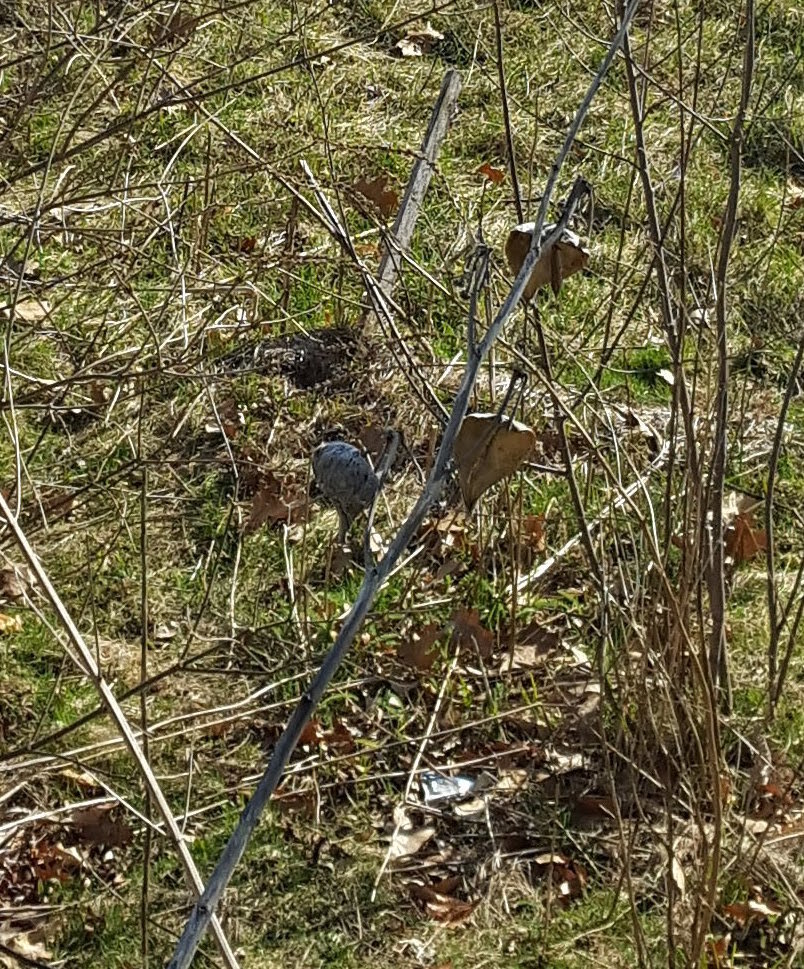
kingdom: Plantae
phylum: Tracheophyta
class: Magnoliopsida
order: Gentianales
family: Apocynaceae
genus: Asclepias
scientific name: Asclepias syriaca
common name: Common milkweed
